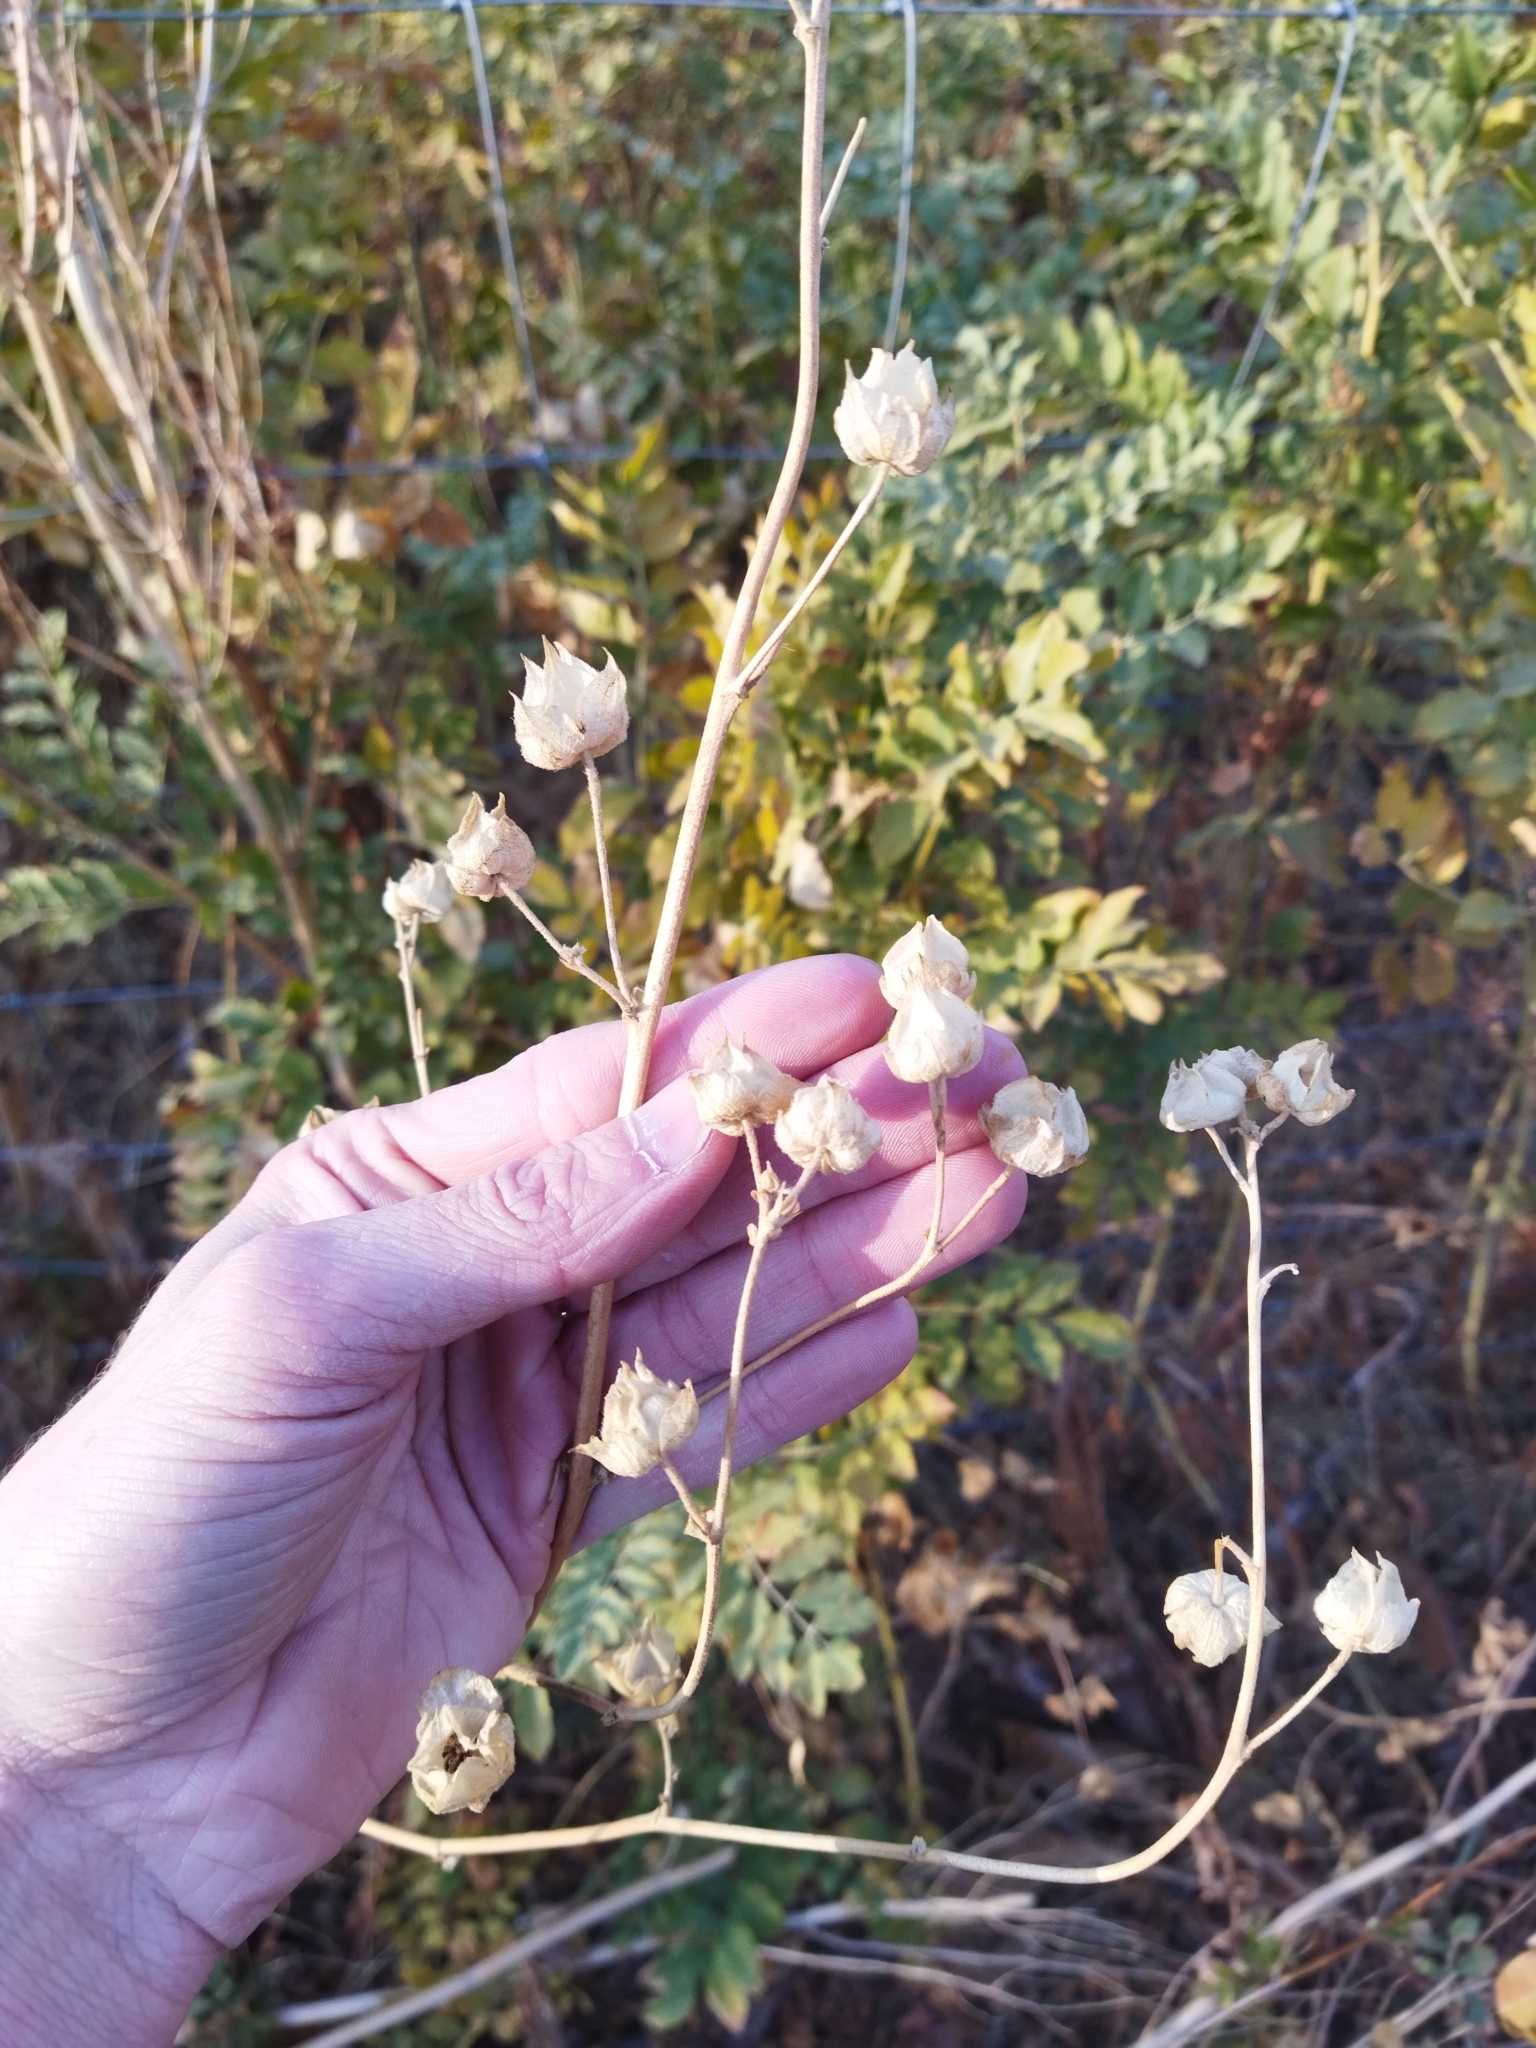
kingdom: Plantae
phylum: Tracheophyta
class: Magnoliopsida
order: Malvales
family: Malvaceae
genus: Malva
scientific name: Malva thuringiaca
